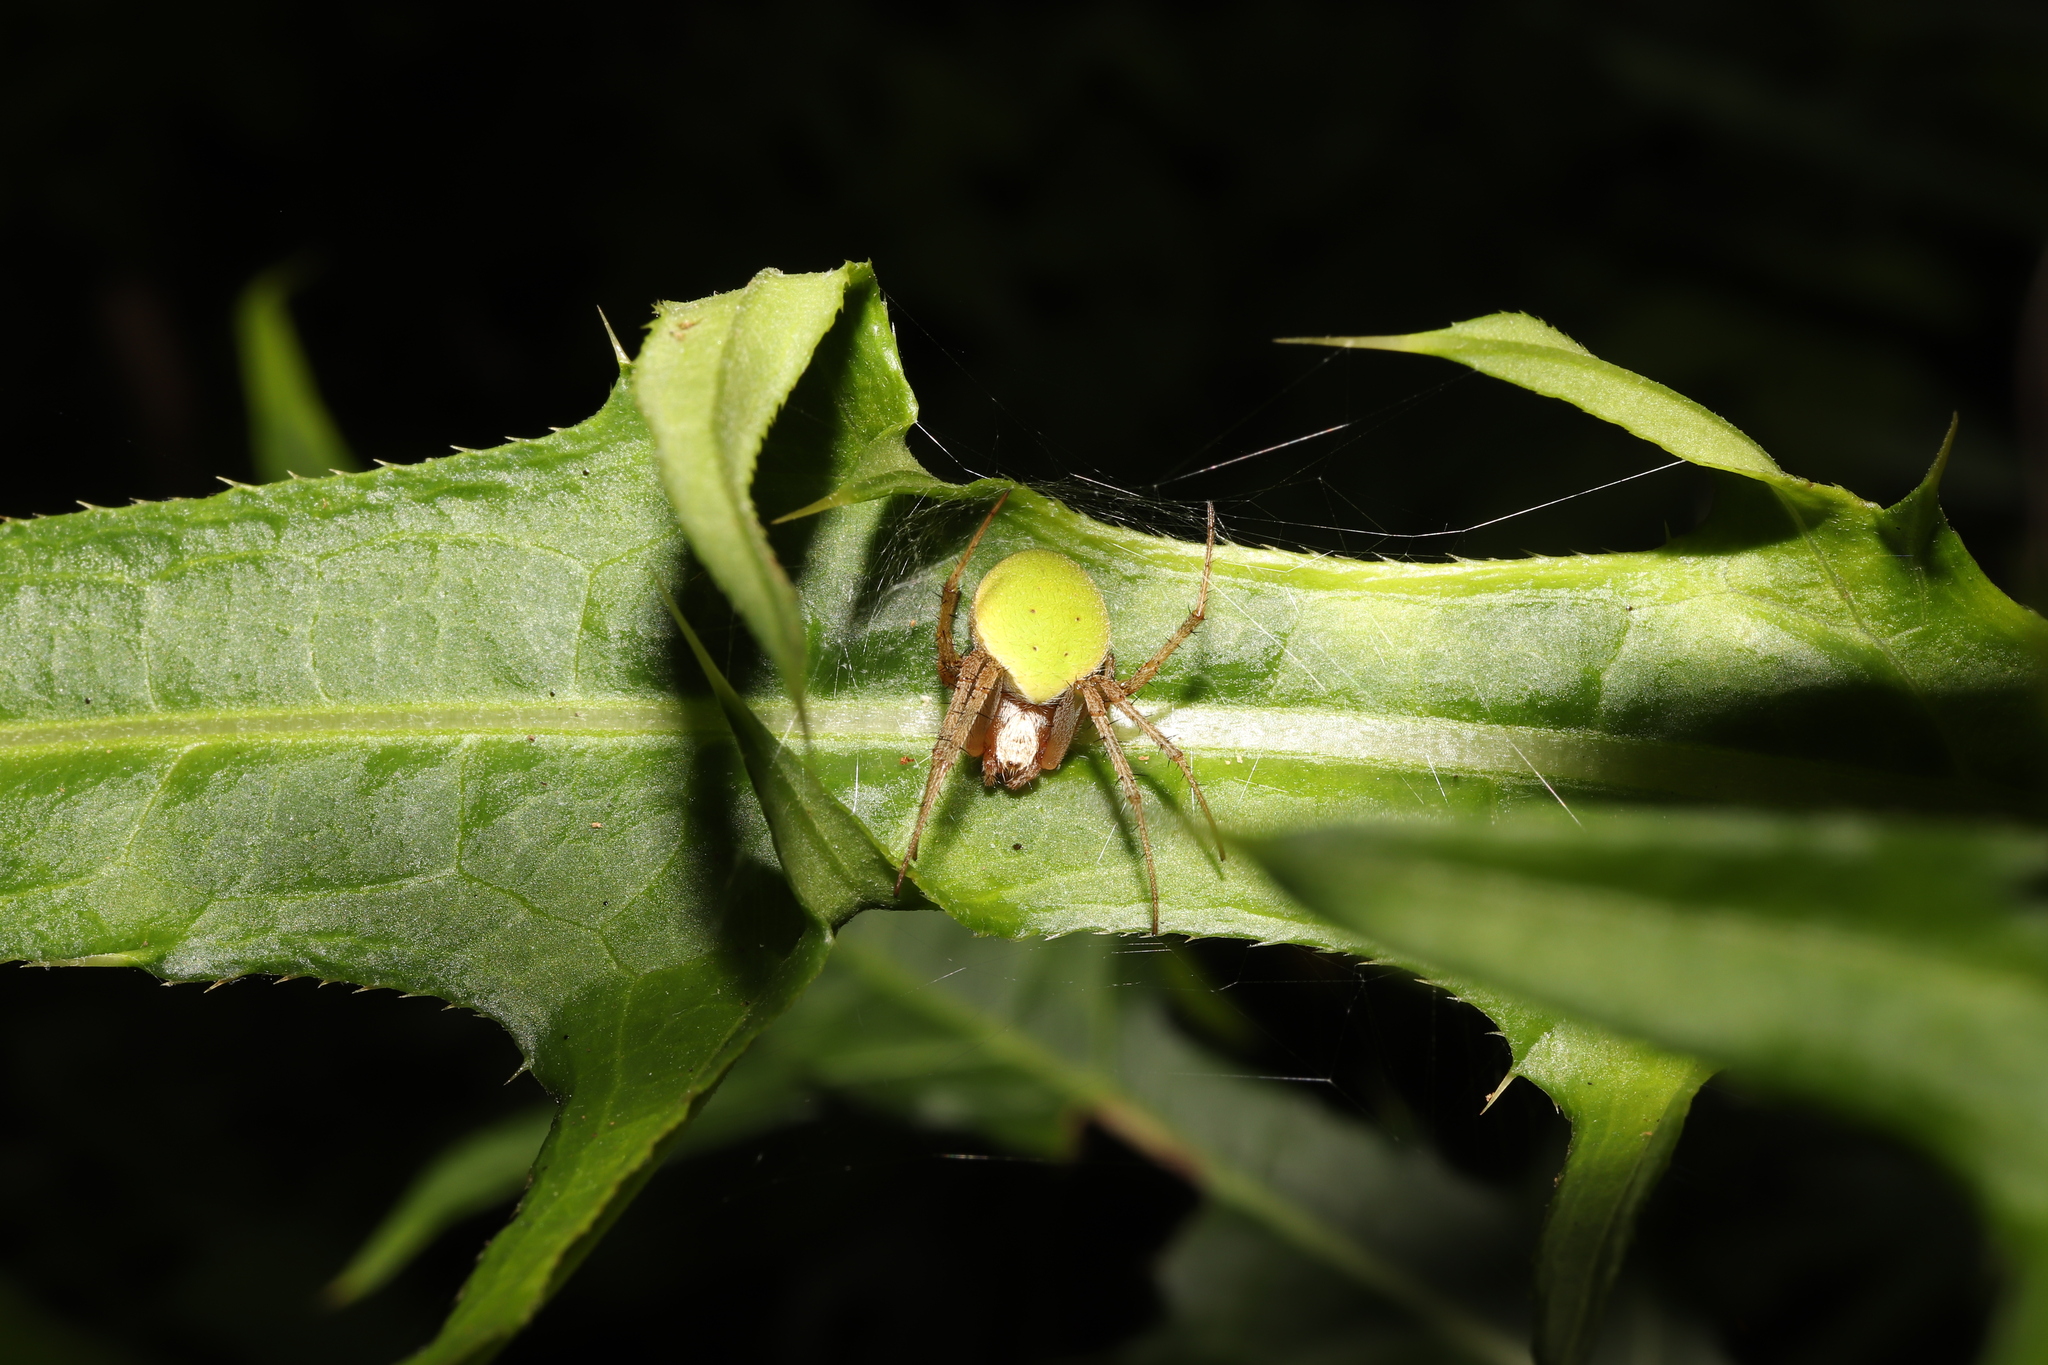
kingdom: Animalia
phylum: Arthropoda
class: Arachnida
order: Araneae
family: Araneidae
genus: Neoscona
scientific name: Neoscona mellotteei
